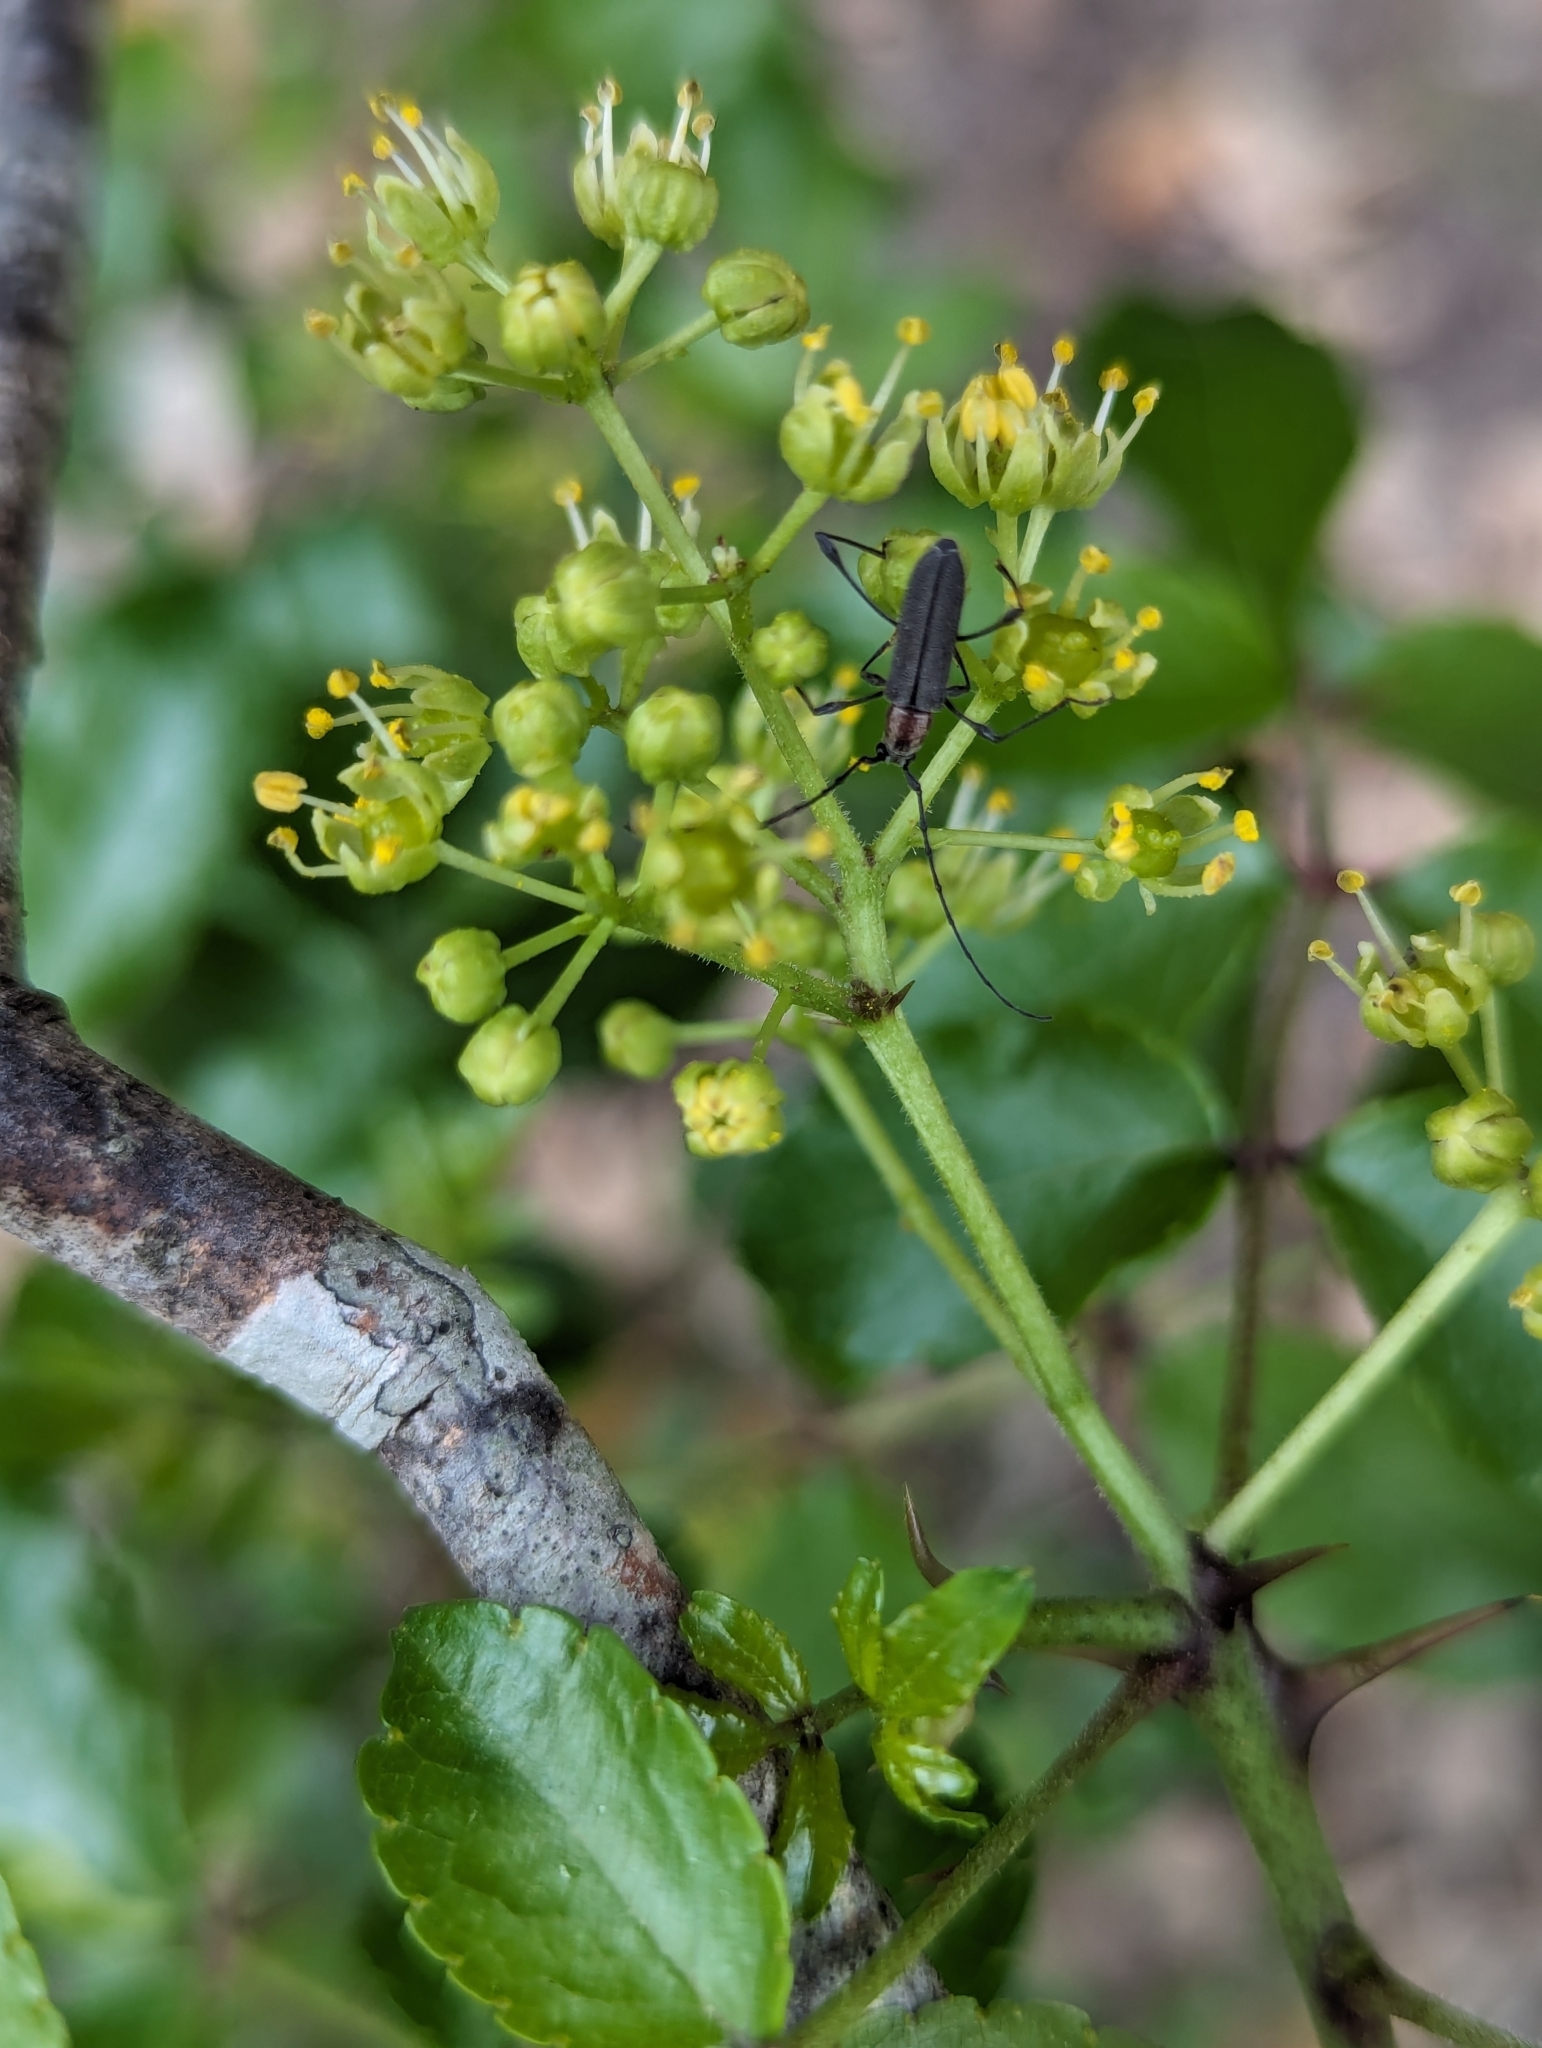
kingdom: Animalia
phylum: Arthropoda
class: Insecta
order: Coleoptera
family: Cerambycidae
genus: Rhopalophora
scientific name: Rhopalophora longipes
